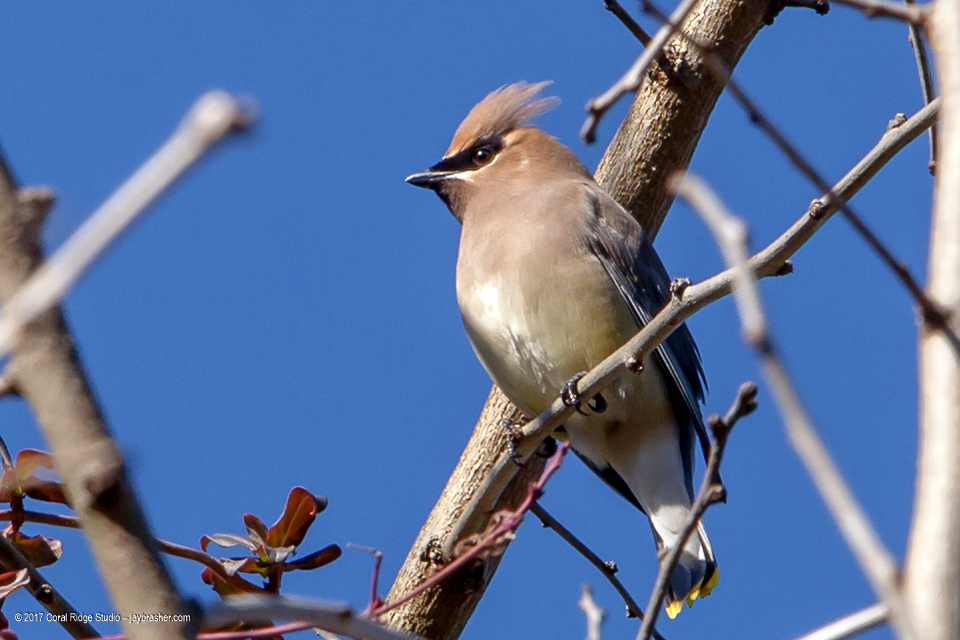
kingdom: Animalia
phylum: Chordata
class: Aves
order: Passeriformes
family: Bombycillidae
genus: Bombycilla
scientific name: Bombycilla cedrorum
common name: Cedar waxwing
